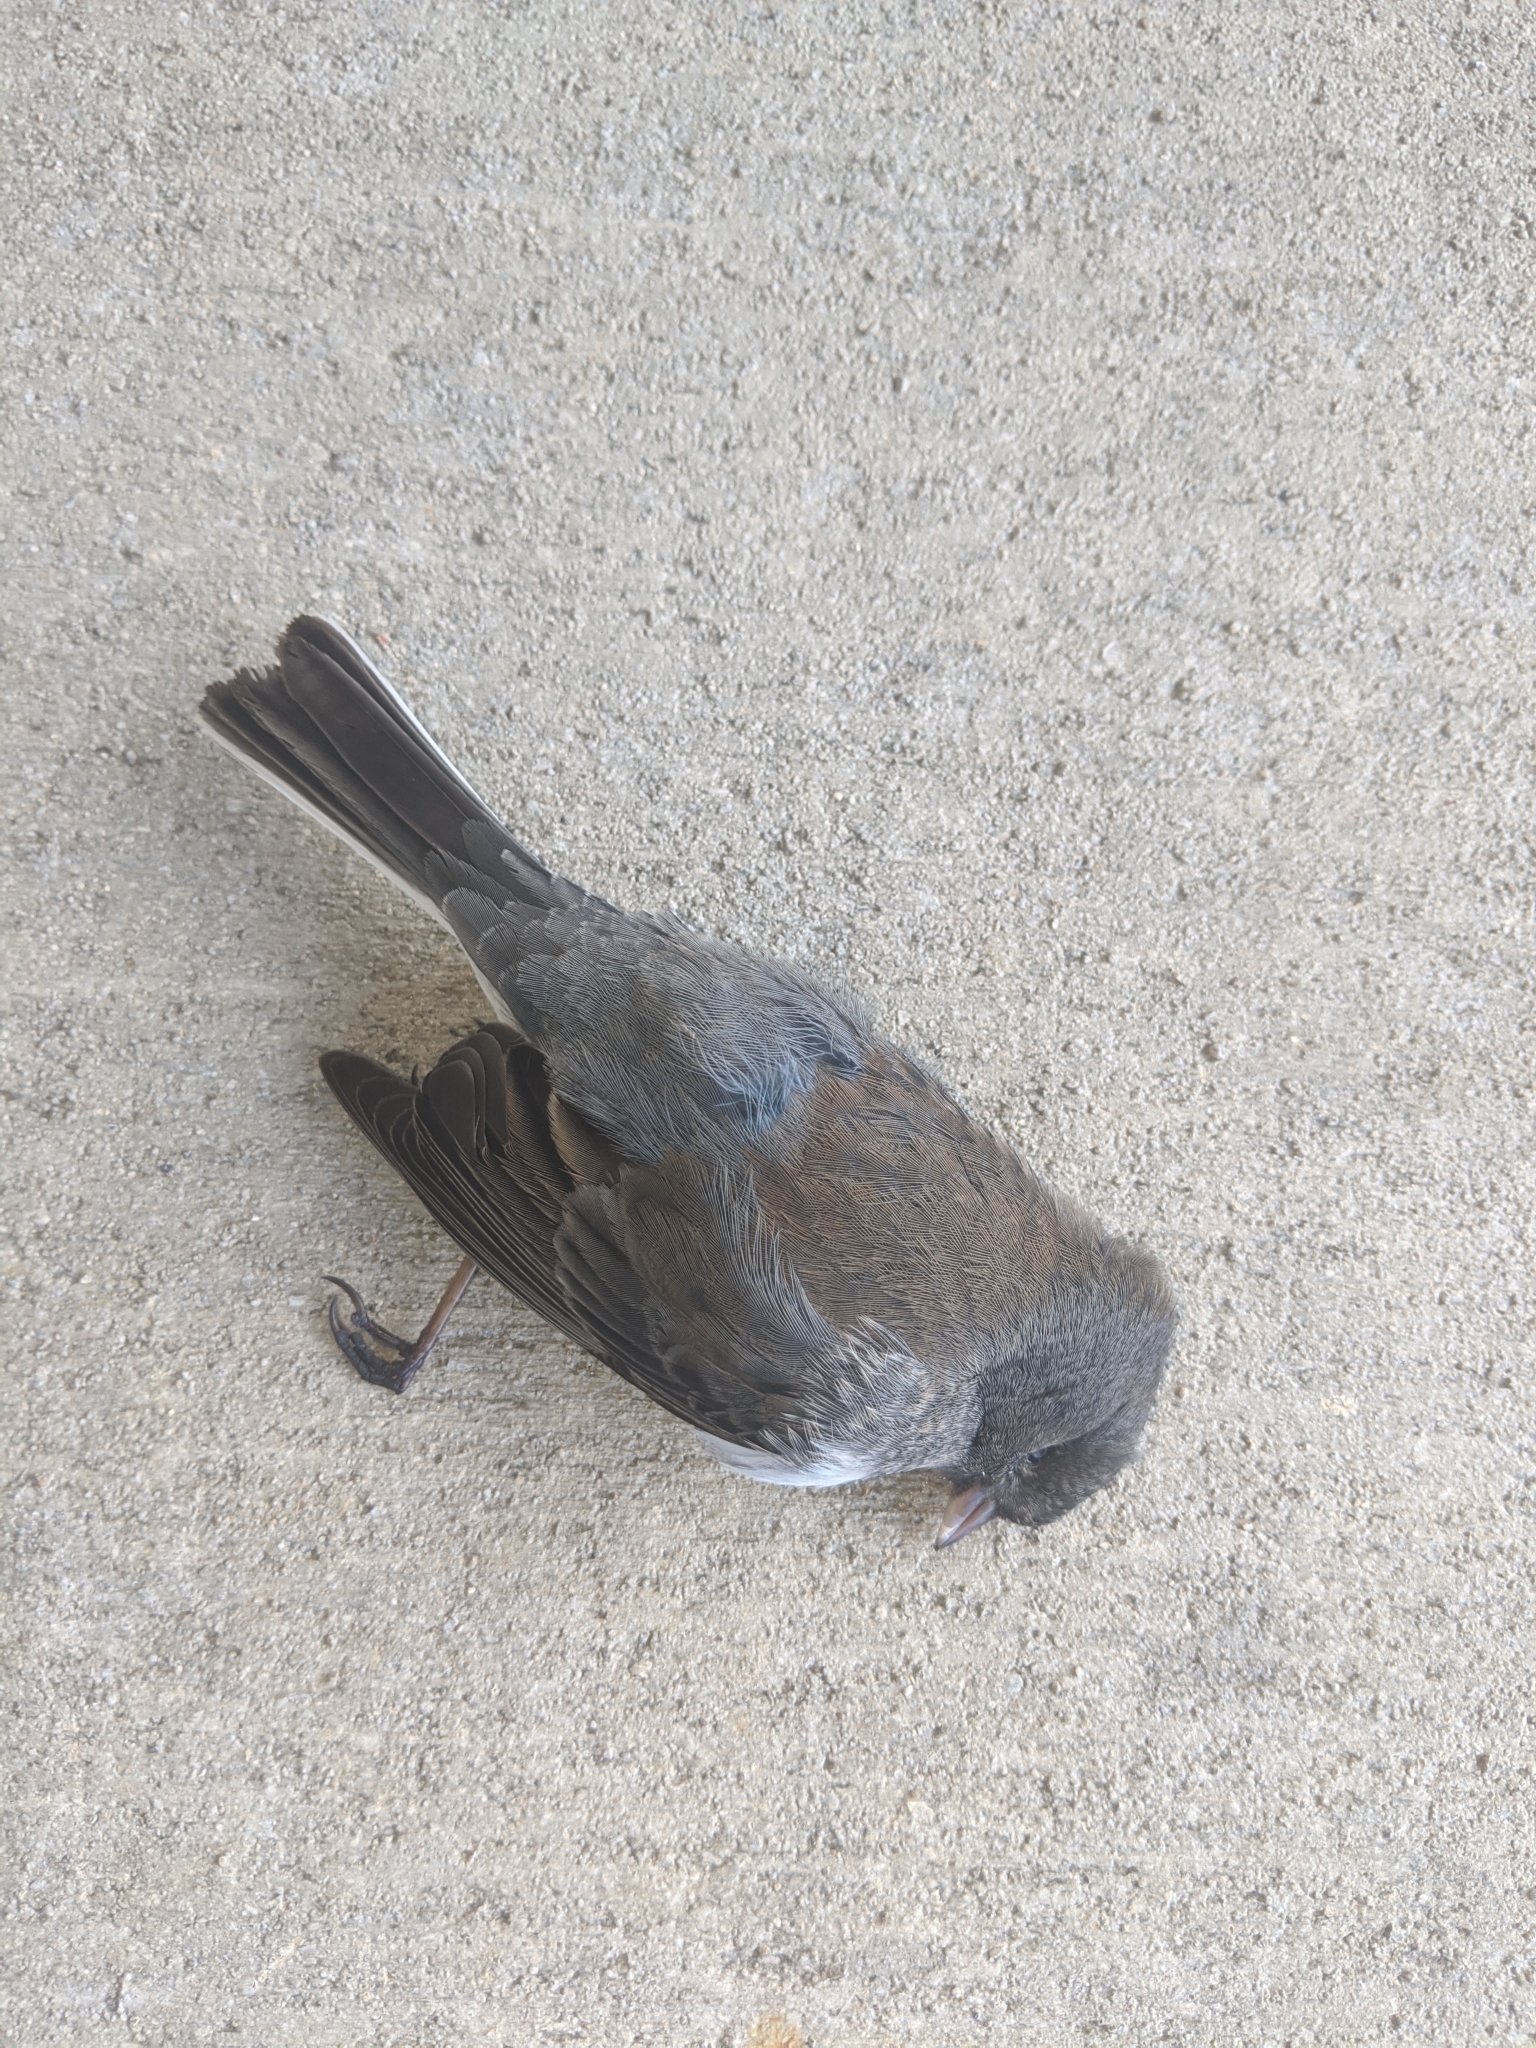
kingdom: Animalia
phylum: Chordata
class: Aves
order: Passeriformes
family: Passerellidae
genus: Junco
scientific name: Junco hyemalis
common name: Dark-eyed junco
